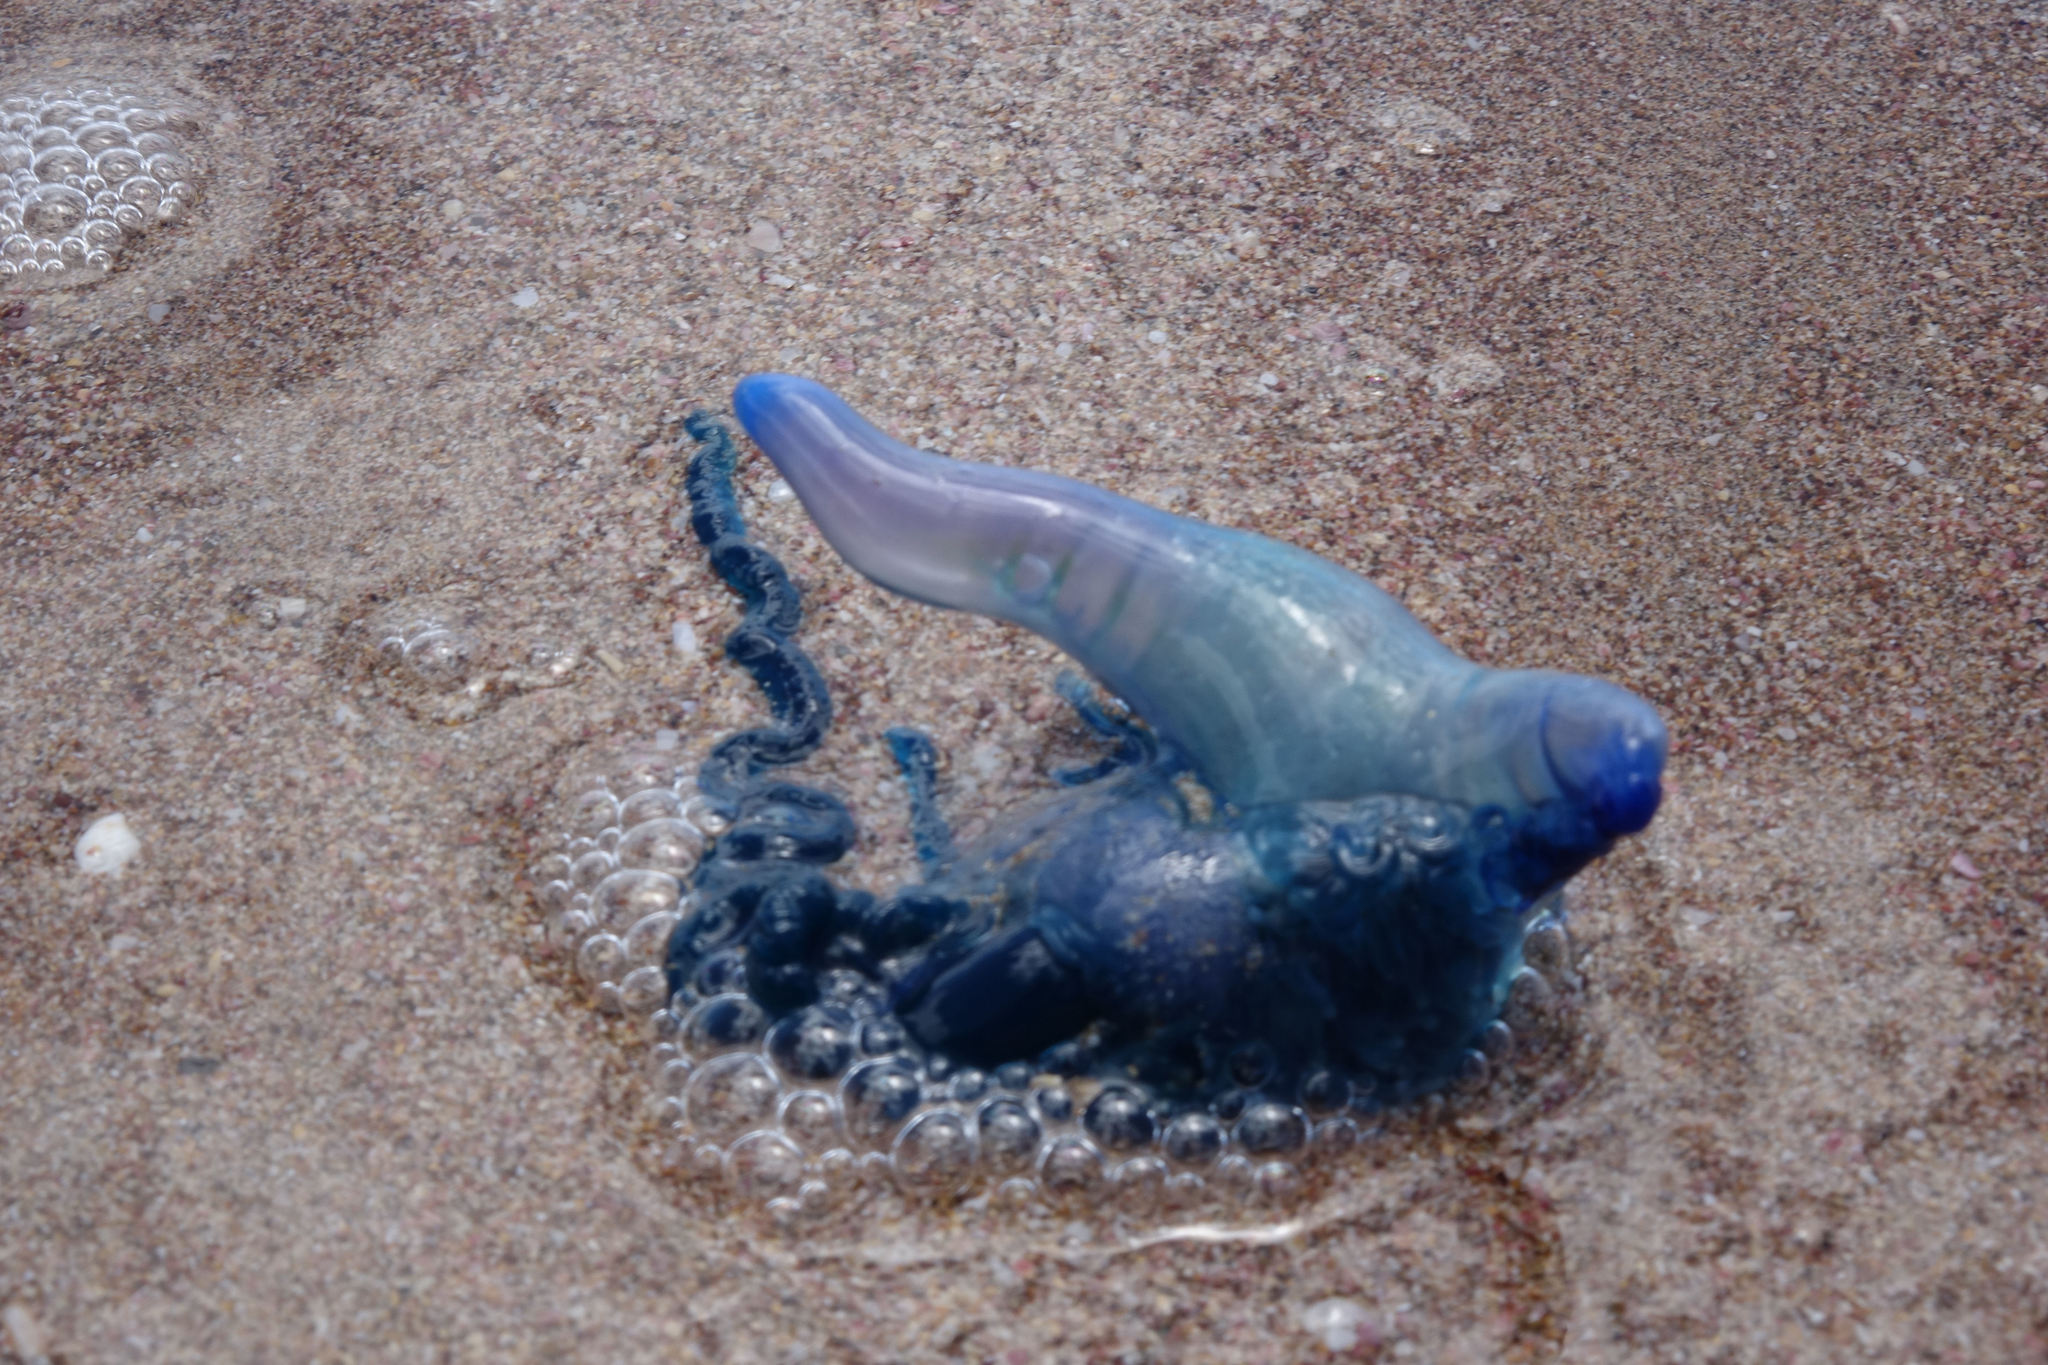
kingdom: Animalia
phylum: Cnidaria
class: Hydrozoa
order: Siphonophorae
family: Physaliidae
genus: Physalia
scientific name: Physalia physalis
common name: Portuguese man-of-war
